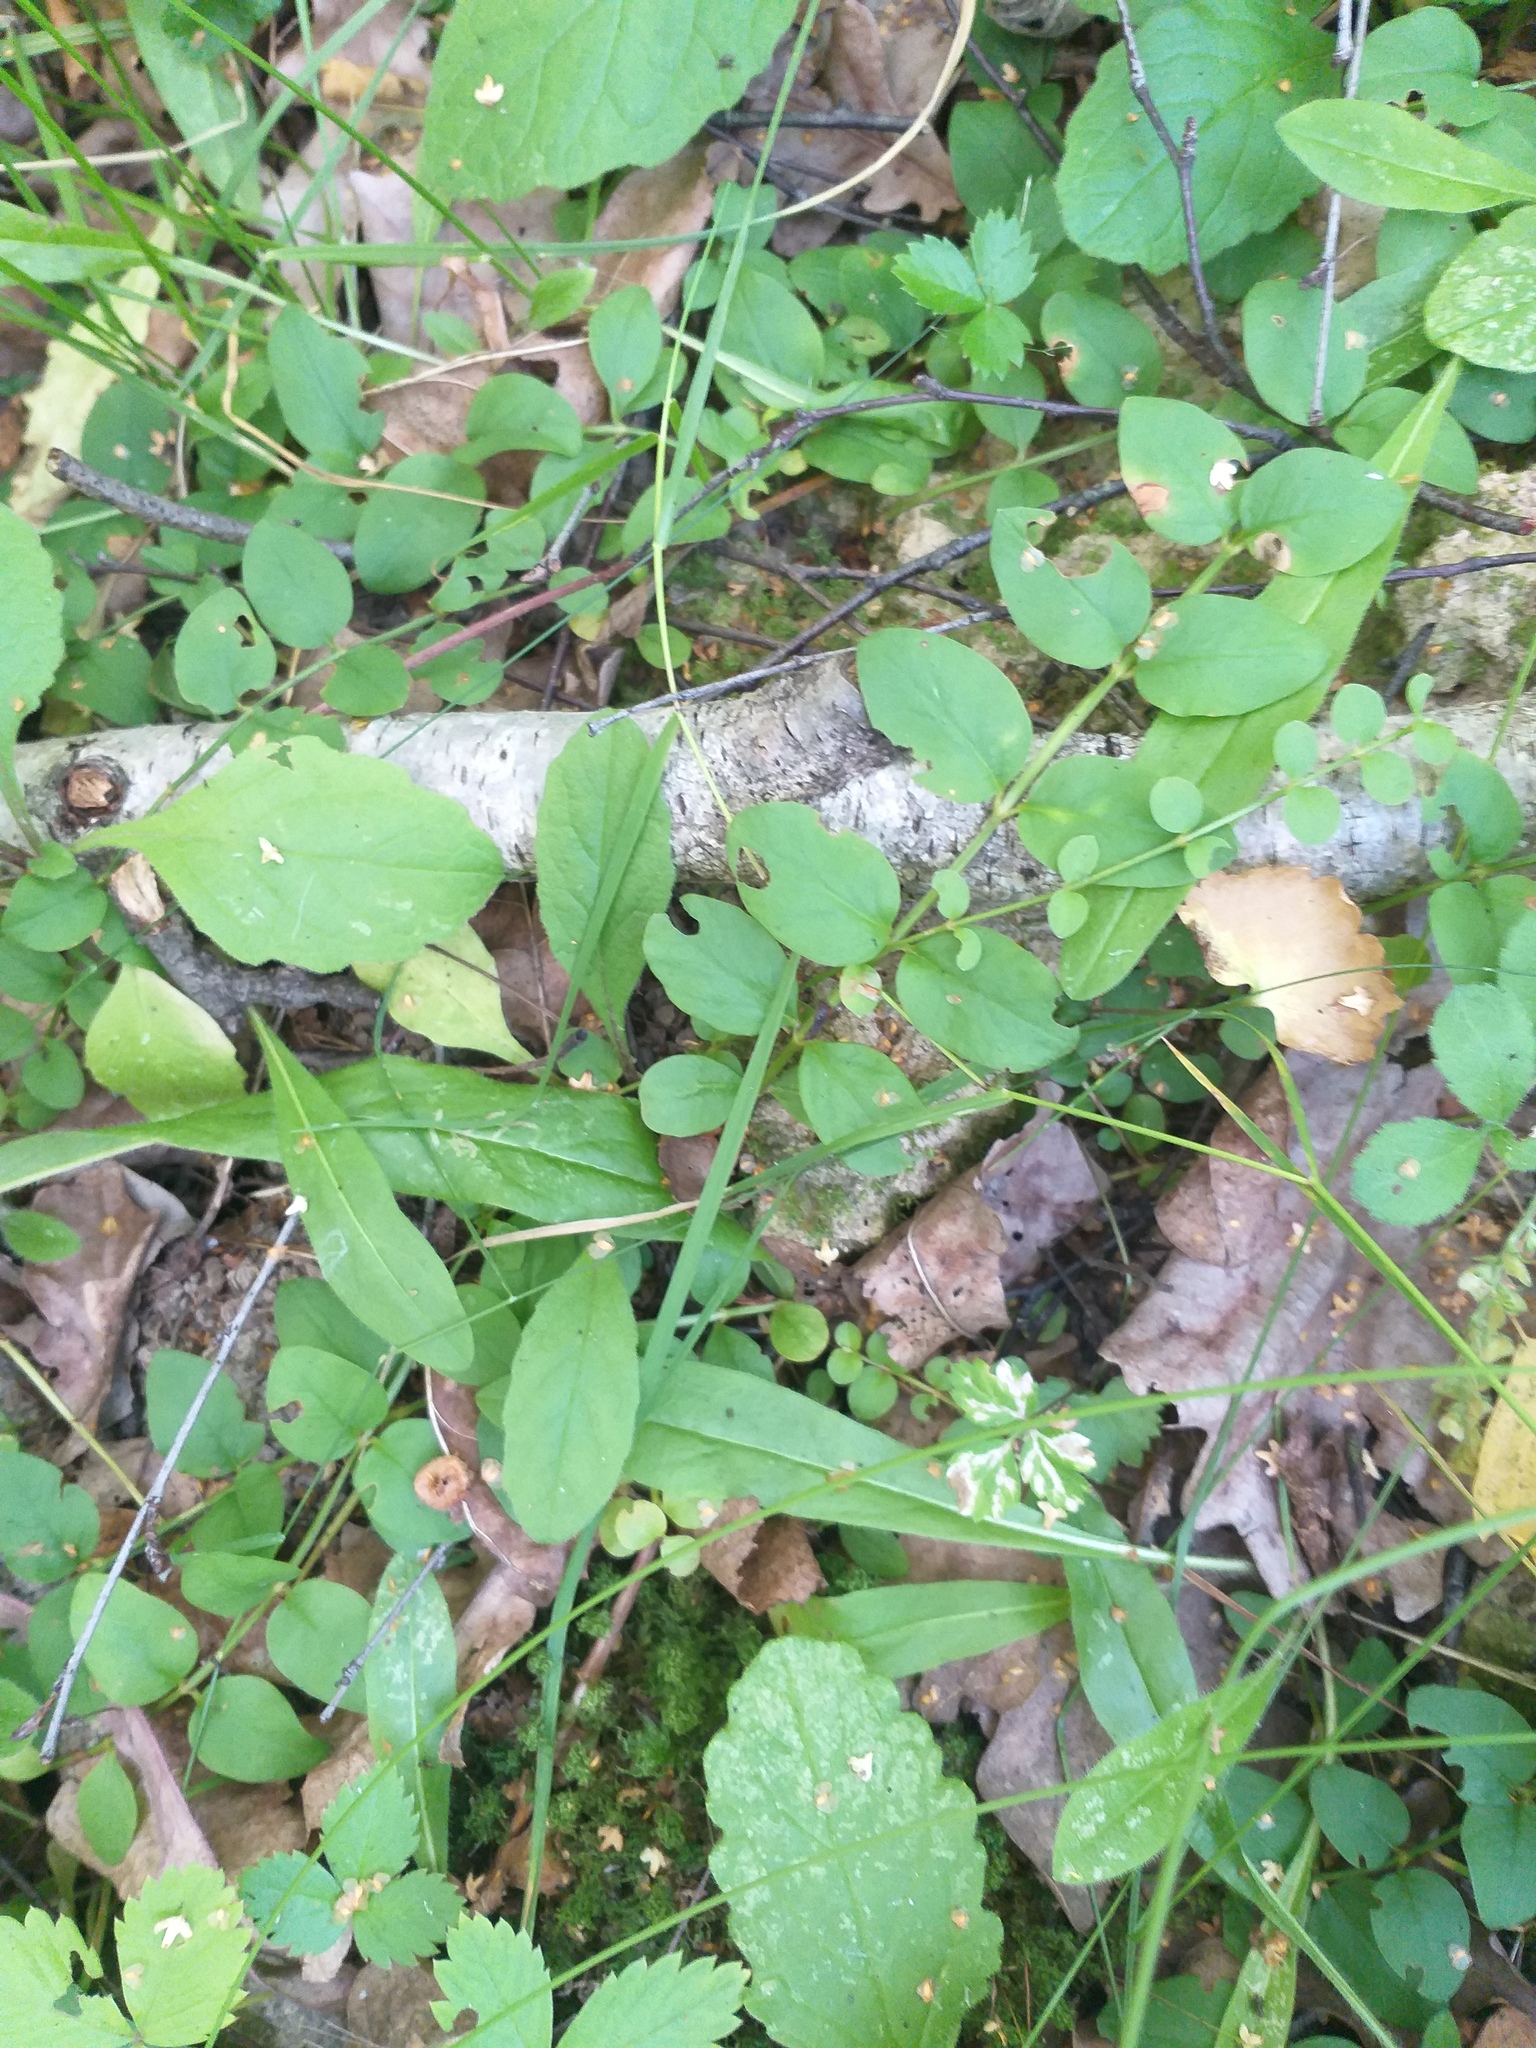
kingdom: Plantae
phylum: Tracheophyta
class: Magnoliopsida
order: Ericales
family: Primulaceae
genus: Lysimachia
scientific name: Lysimachia nummularia
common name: Moneywort
